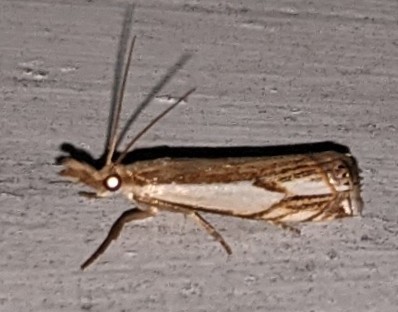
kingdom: Animalia
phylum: Arthropoda
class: Insecta
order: Lepidoptera
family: Crambidae
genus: Crambus
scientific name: Crambus agitatellus
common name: Double-banded grass-veneer
